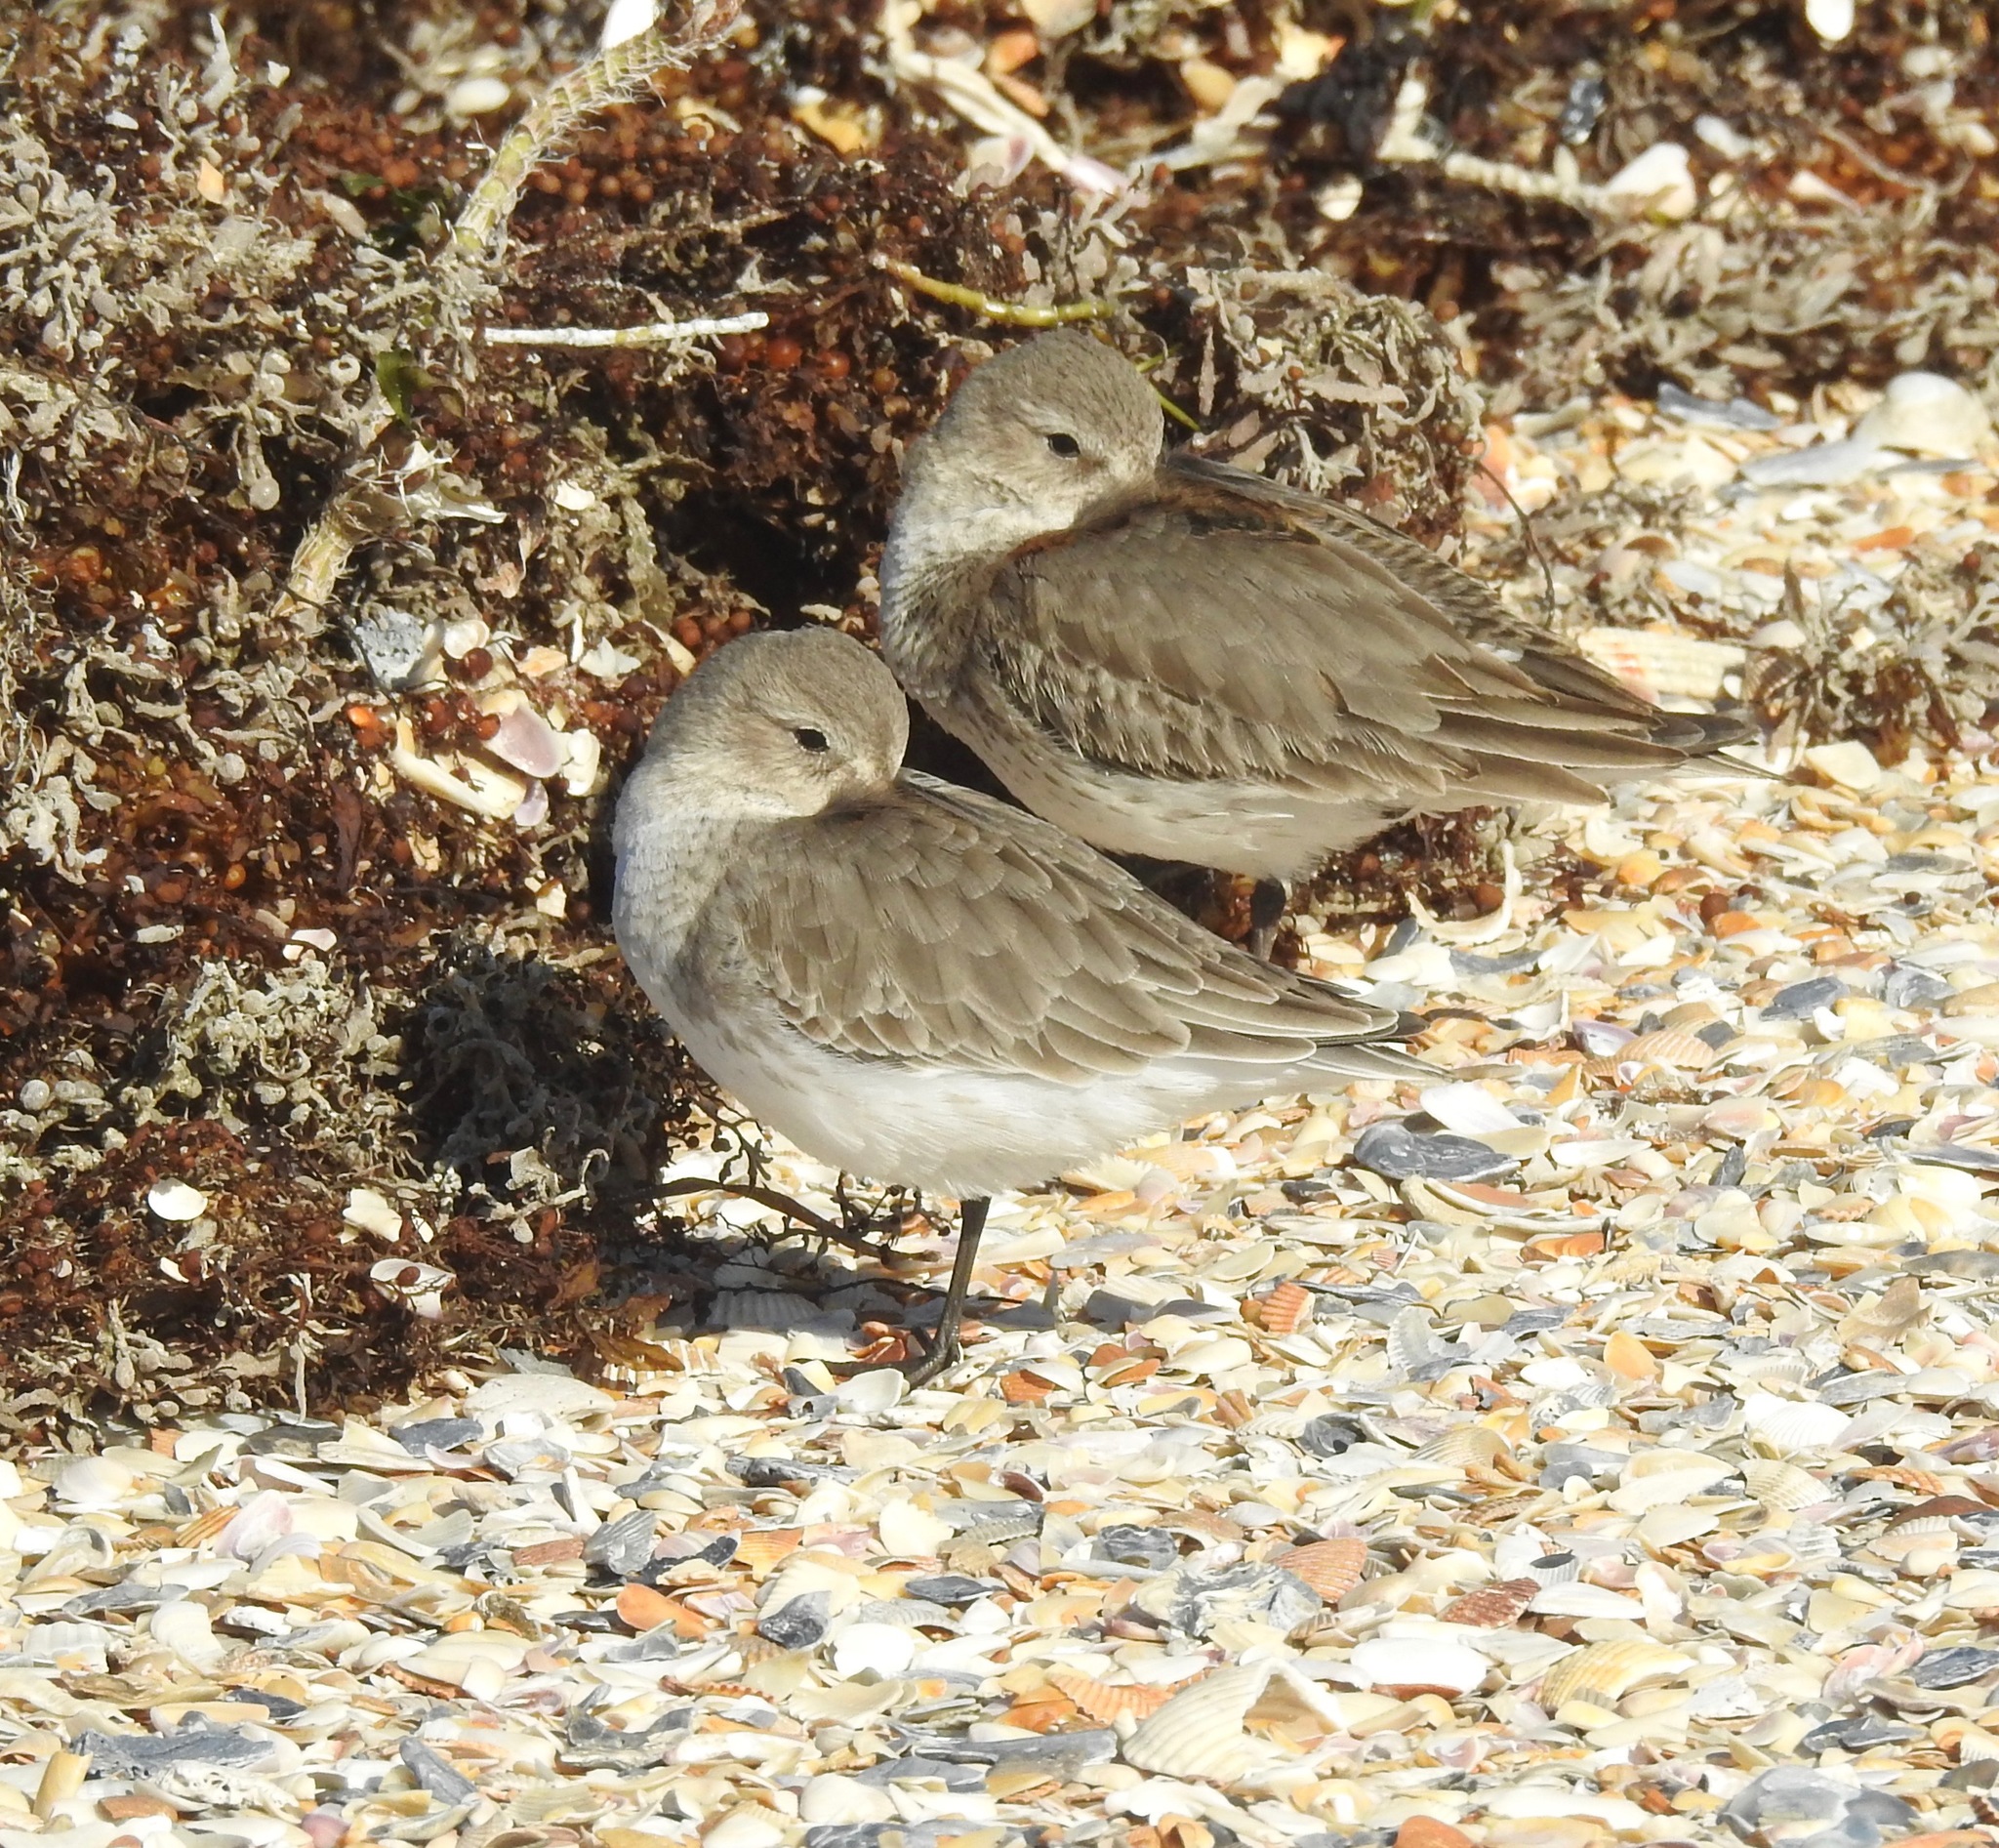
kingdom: Animalia
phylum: Chordata
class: Aves
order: Charadriiformes
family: Scolopacidae
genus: Calidris
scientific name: Calidris alpina
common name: Dunlin
